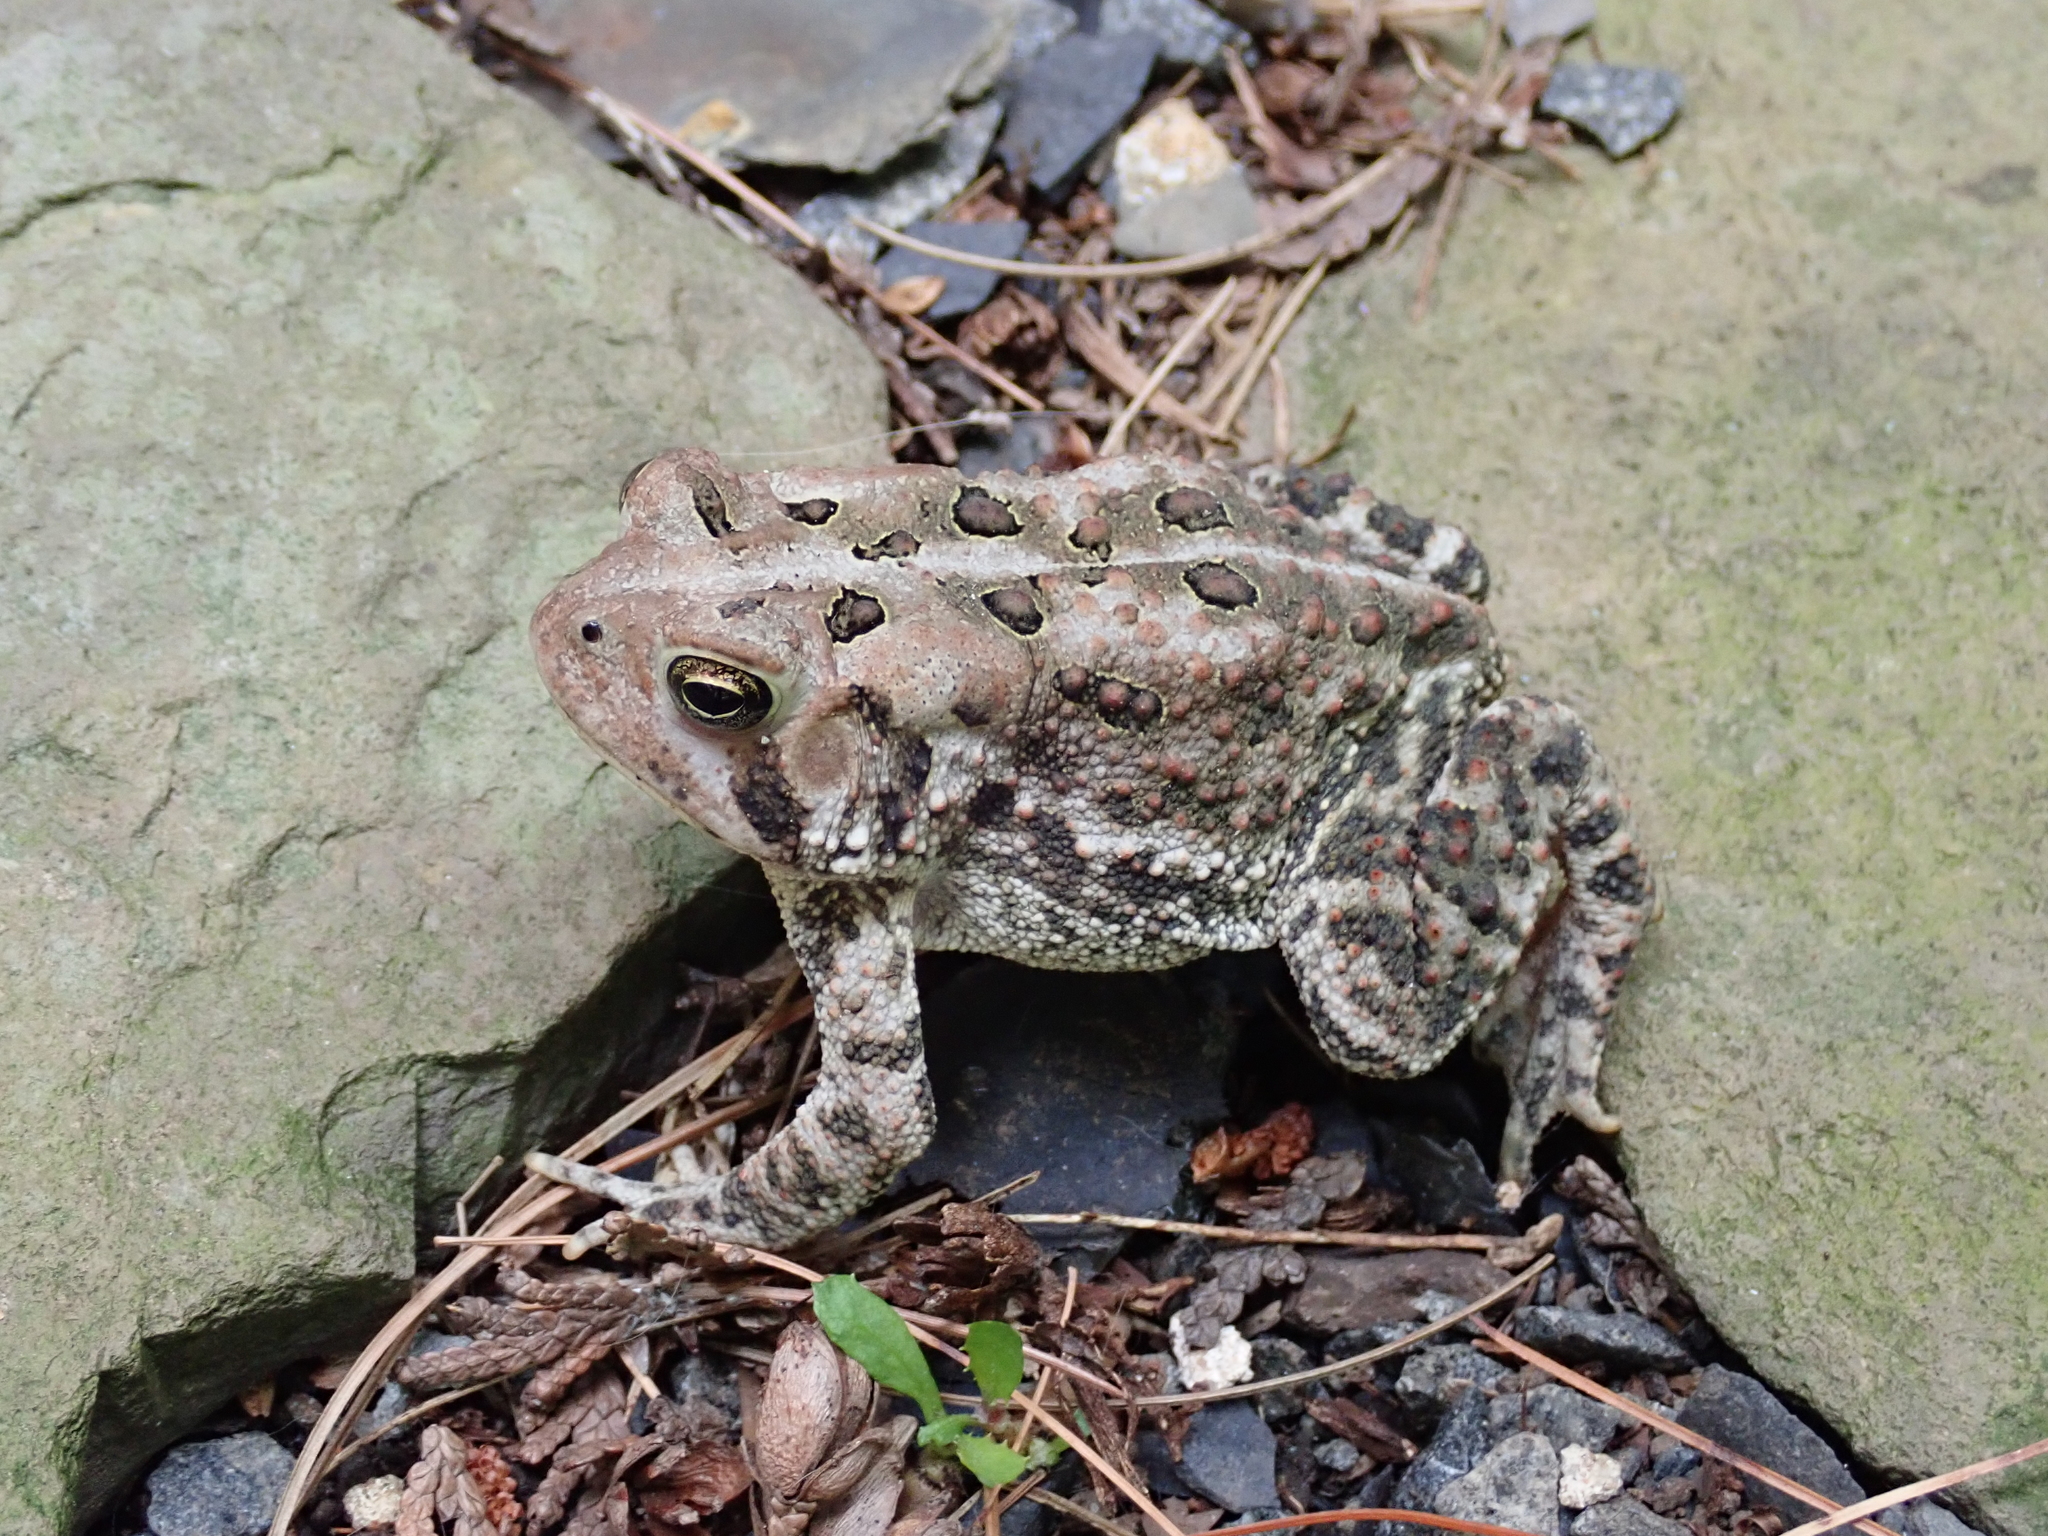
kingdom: Animalia
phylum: Chordata
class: Amphibia
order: Anura
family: Bufonidae
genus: Anaxyrus
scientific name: Anaxyrus americanus
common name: American toad
